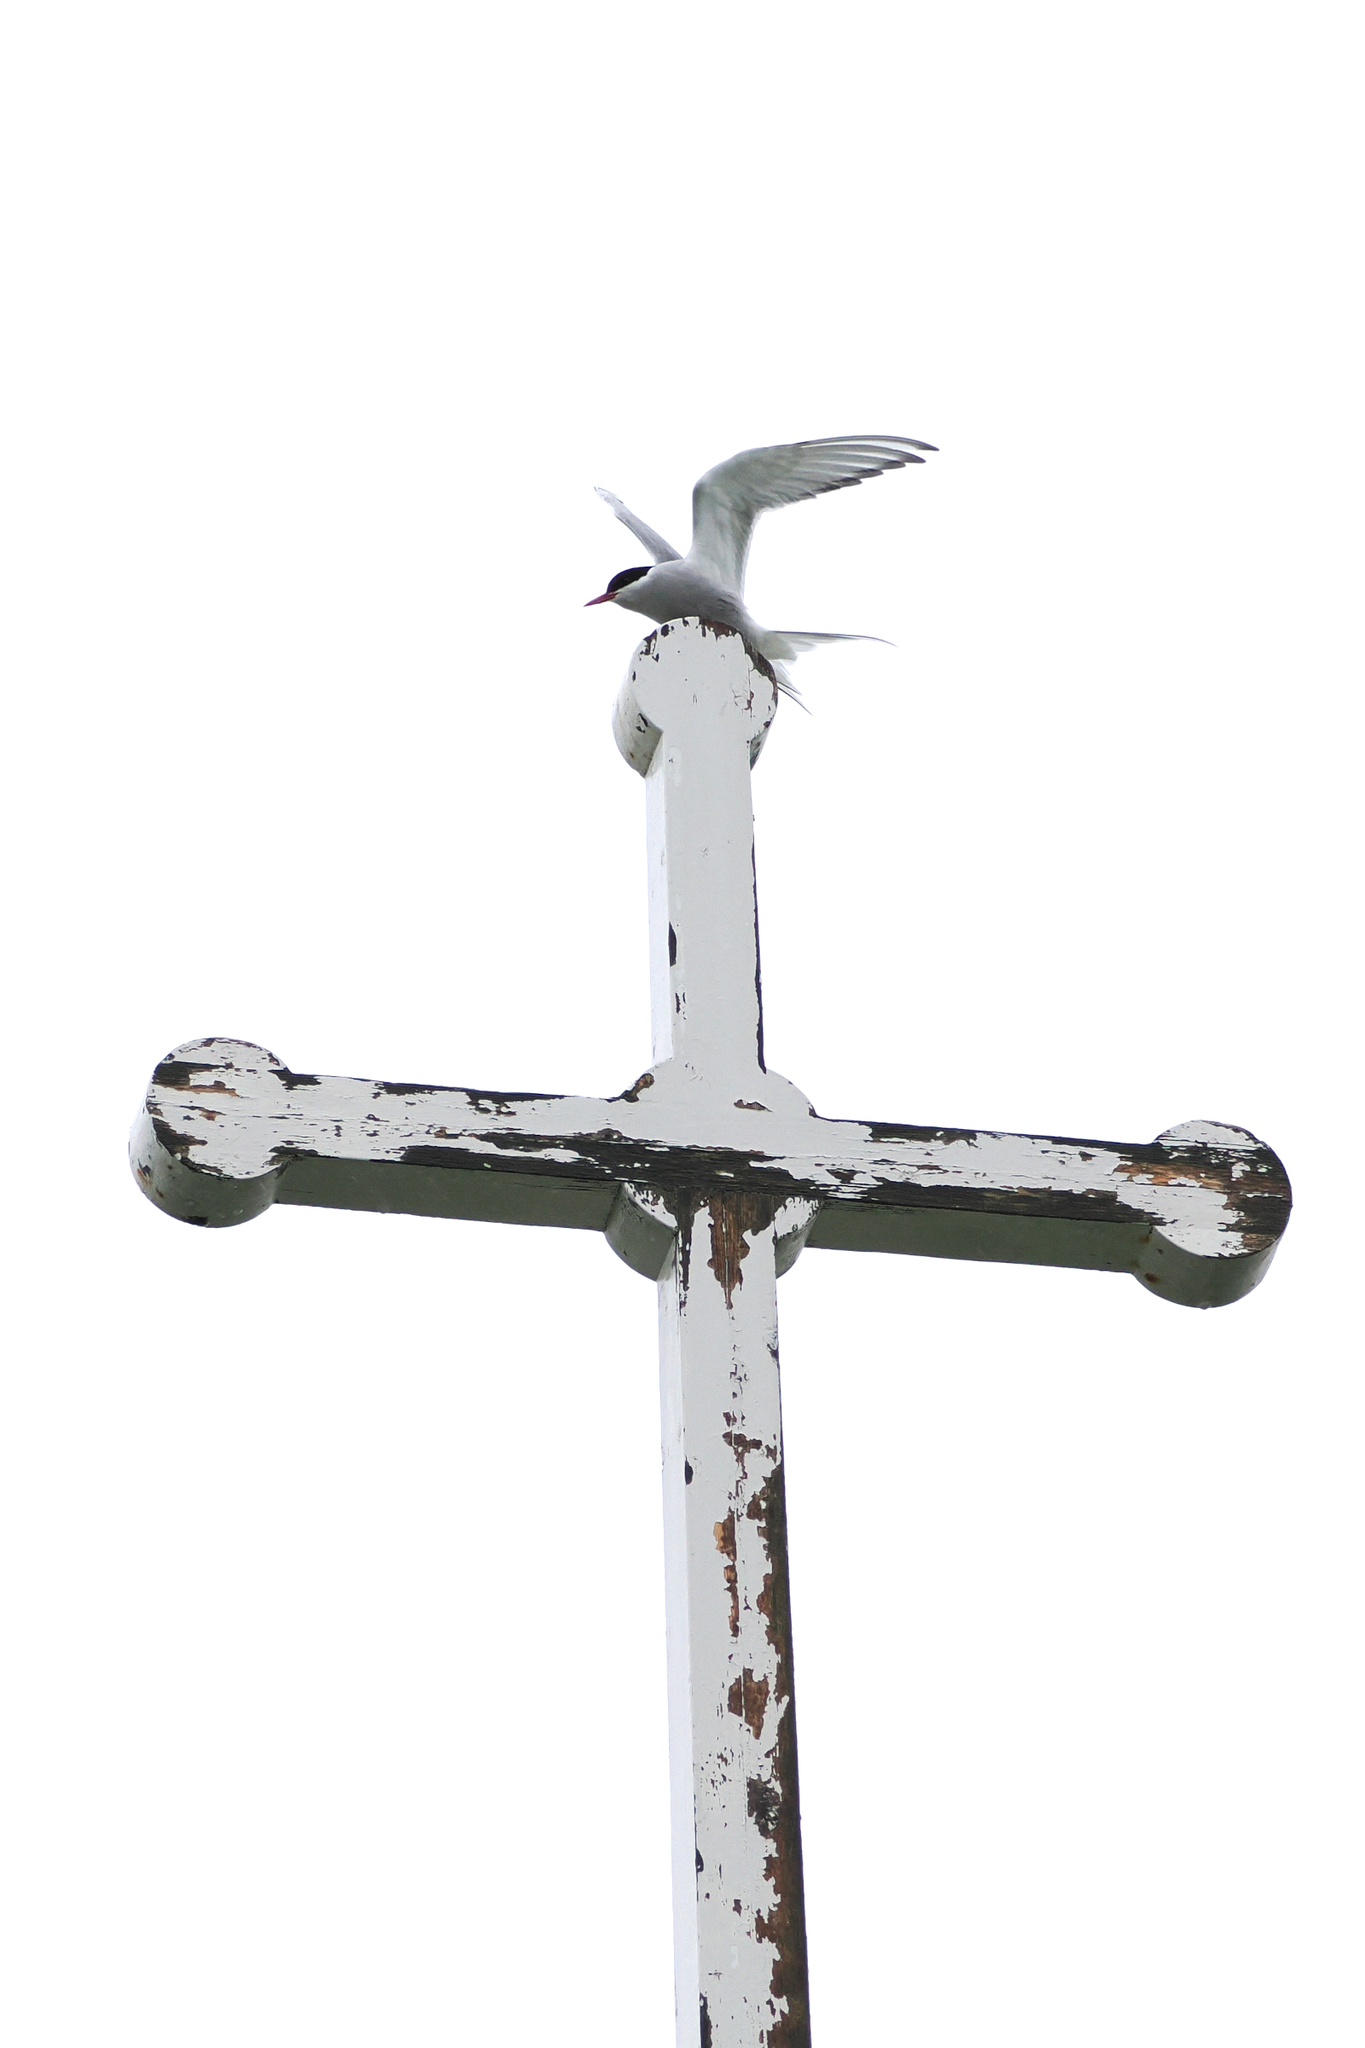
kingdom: Animalia
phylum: Chordata
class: Aves
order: Charadriiformes
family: Laridae
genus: Sterna
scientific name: Sterna paradisaea
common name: Arctic tern
